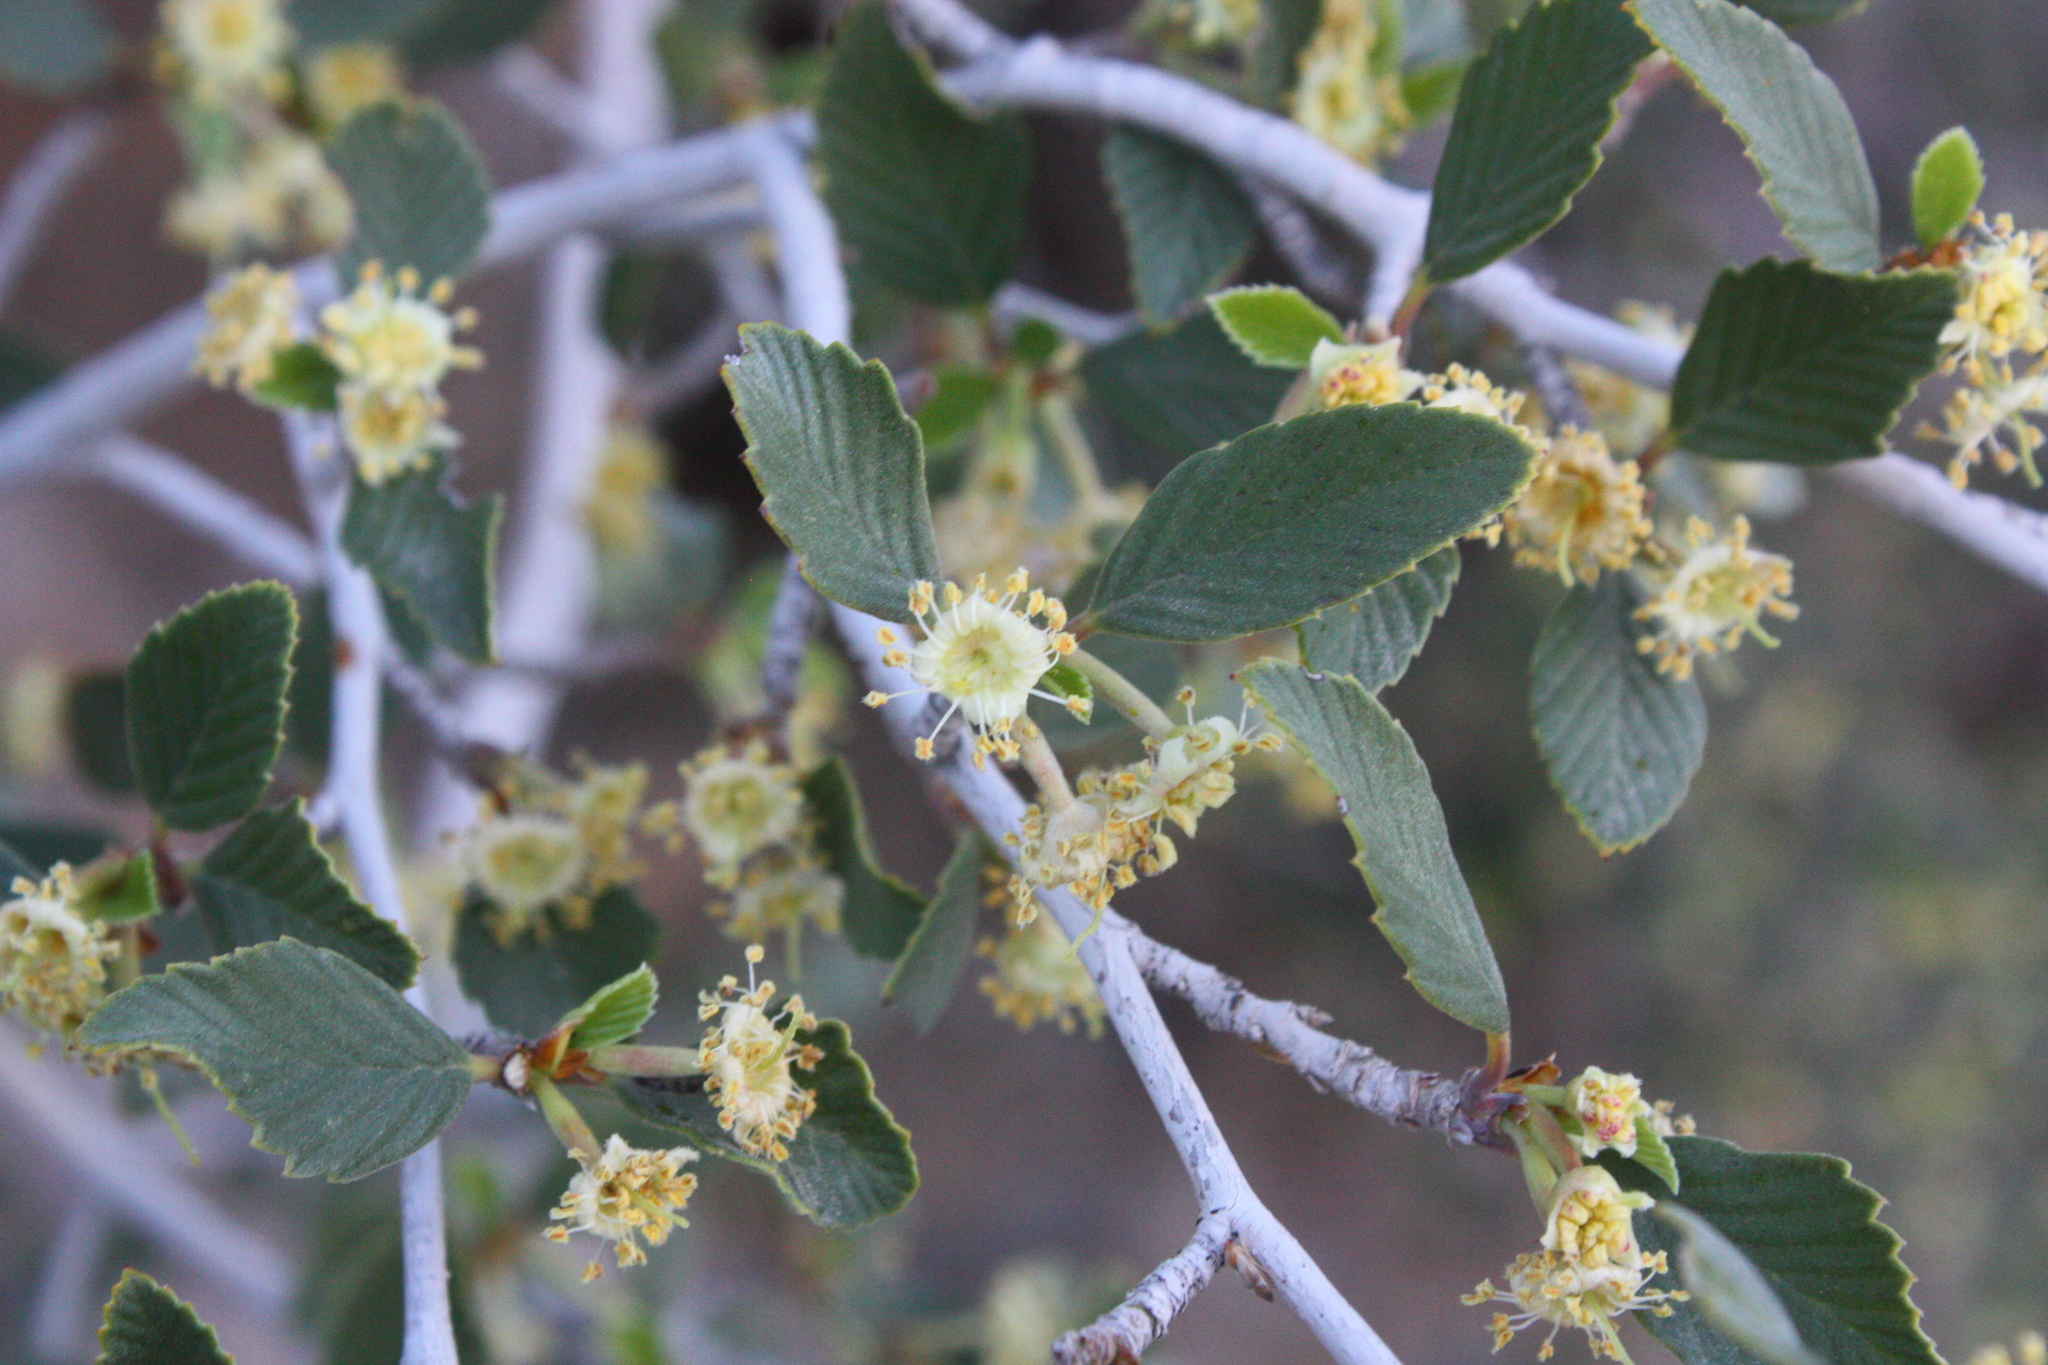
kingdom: Plantae
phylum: Tracheophyta
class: Magnoliopsida
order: Rosales
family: Rosaceae
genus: Cercocarpus
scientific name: Cercocarpus betuloides
